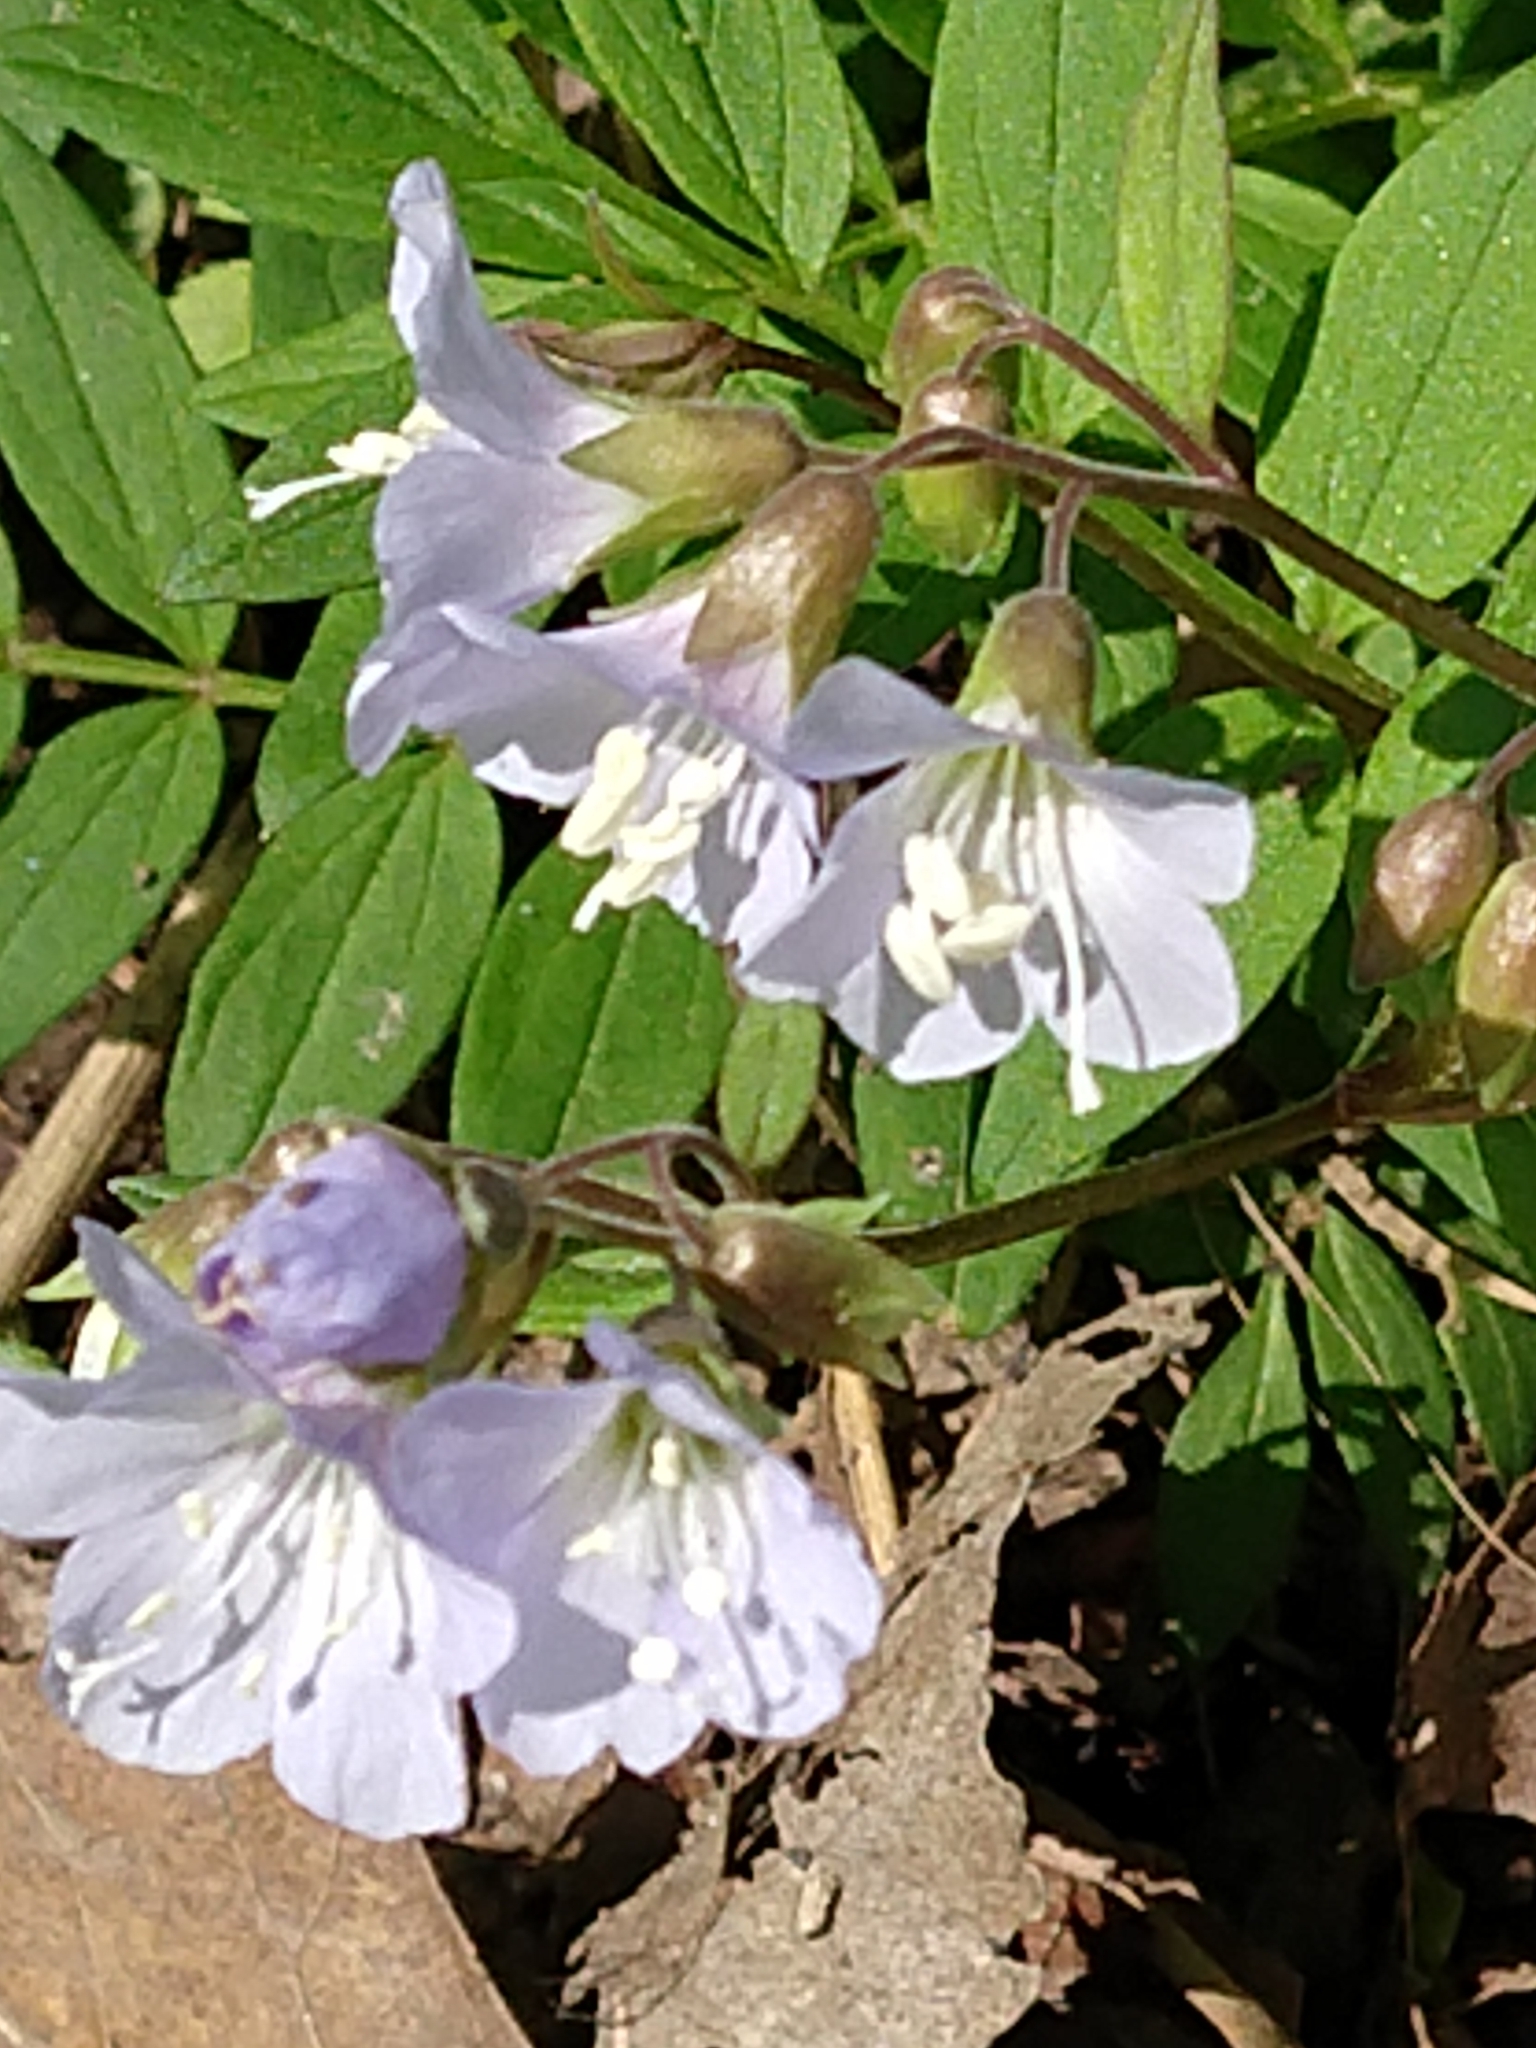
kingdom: Plantae
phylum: Tracheophyta
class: Magnoliopsida
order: Ericales
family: Polemoniaceae
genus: Polemonium
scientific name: Polemonium reptans
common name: Creeping jacob's-ladder
